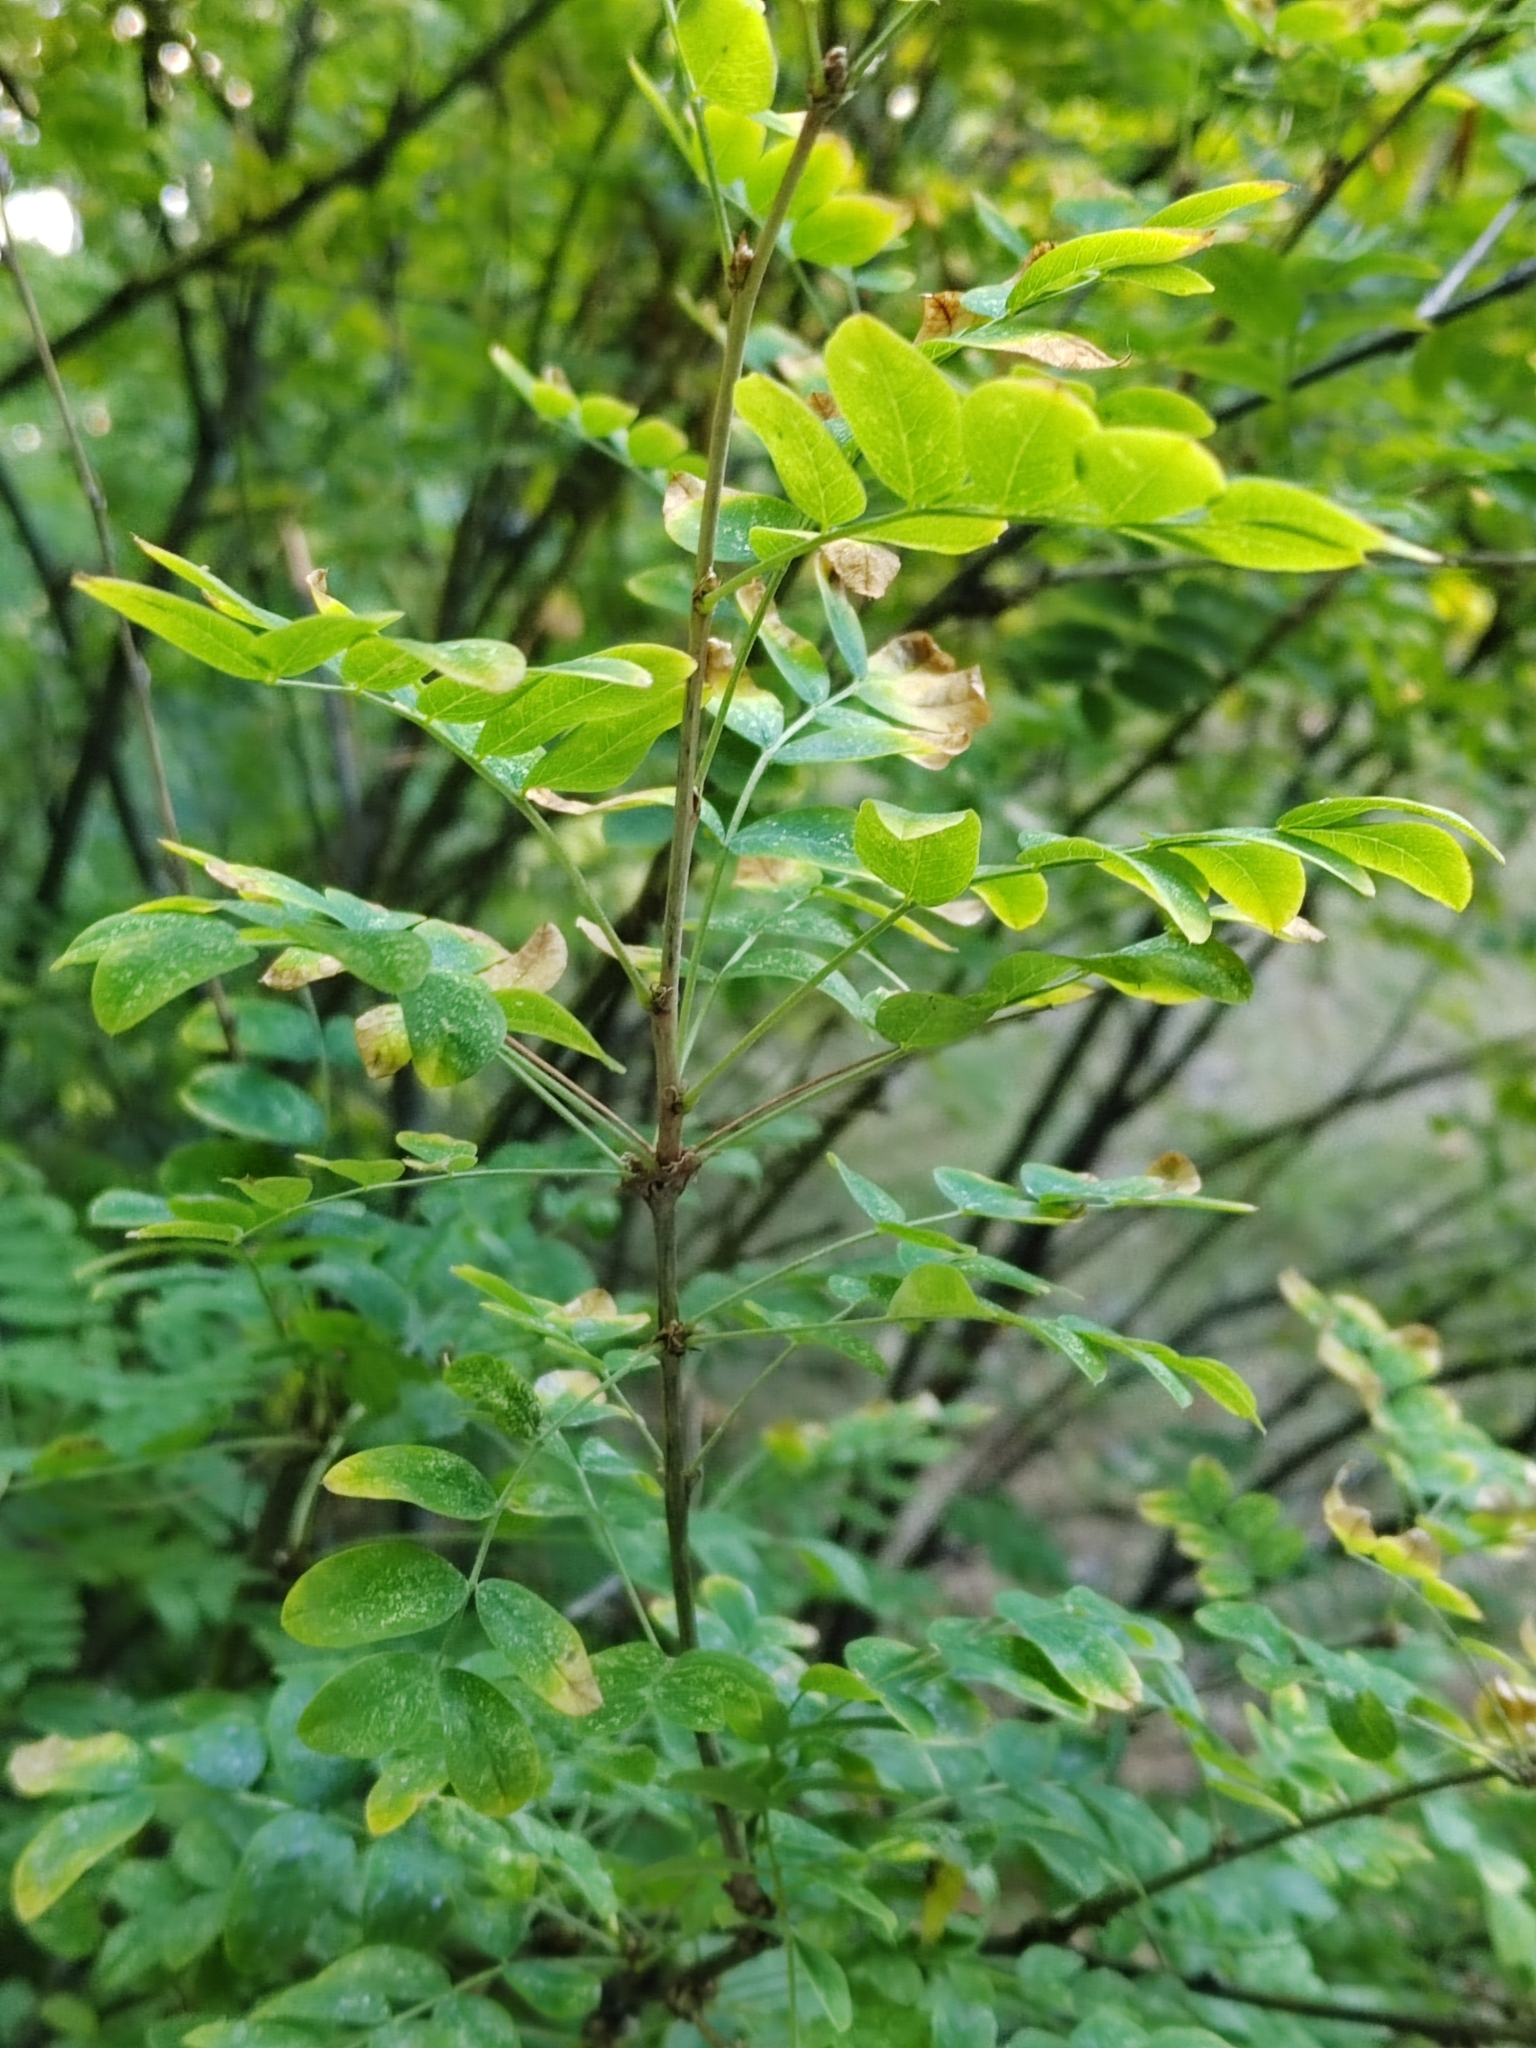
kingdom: Plantae
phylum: Tracheophyta
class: Magnoliopsida
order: Fabales
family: Fabaceae
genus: Caragana
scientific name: Caragana arborescens
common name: Siberian peashrub
